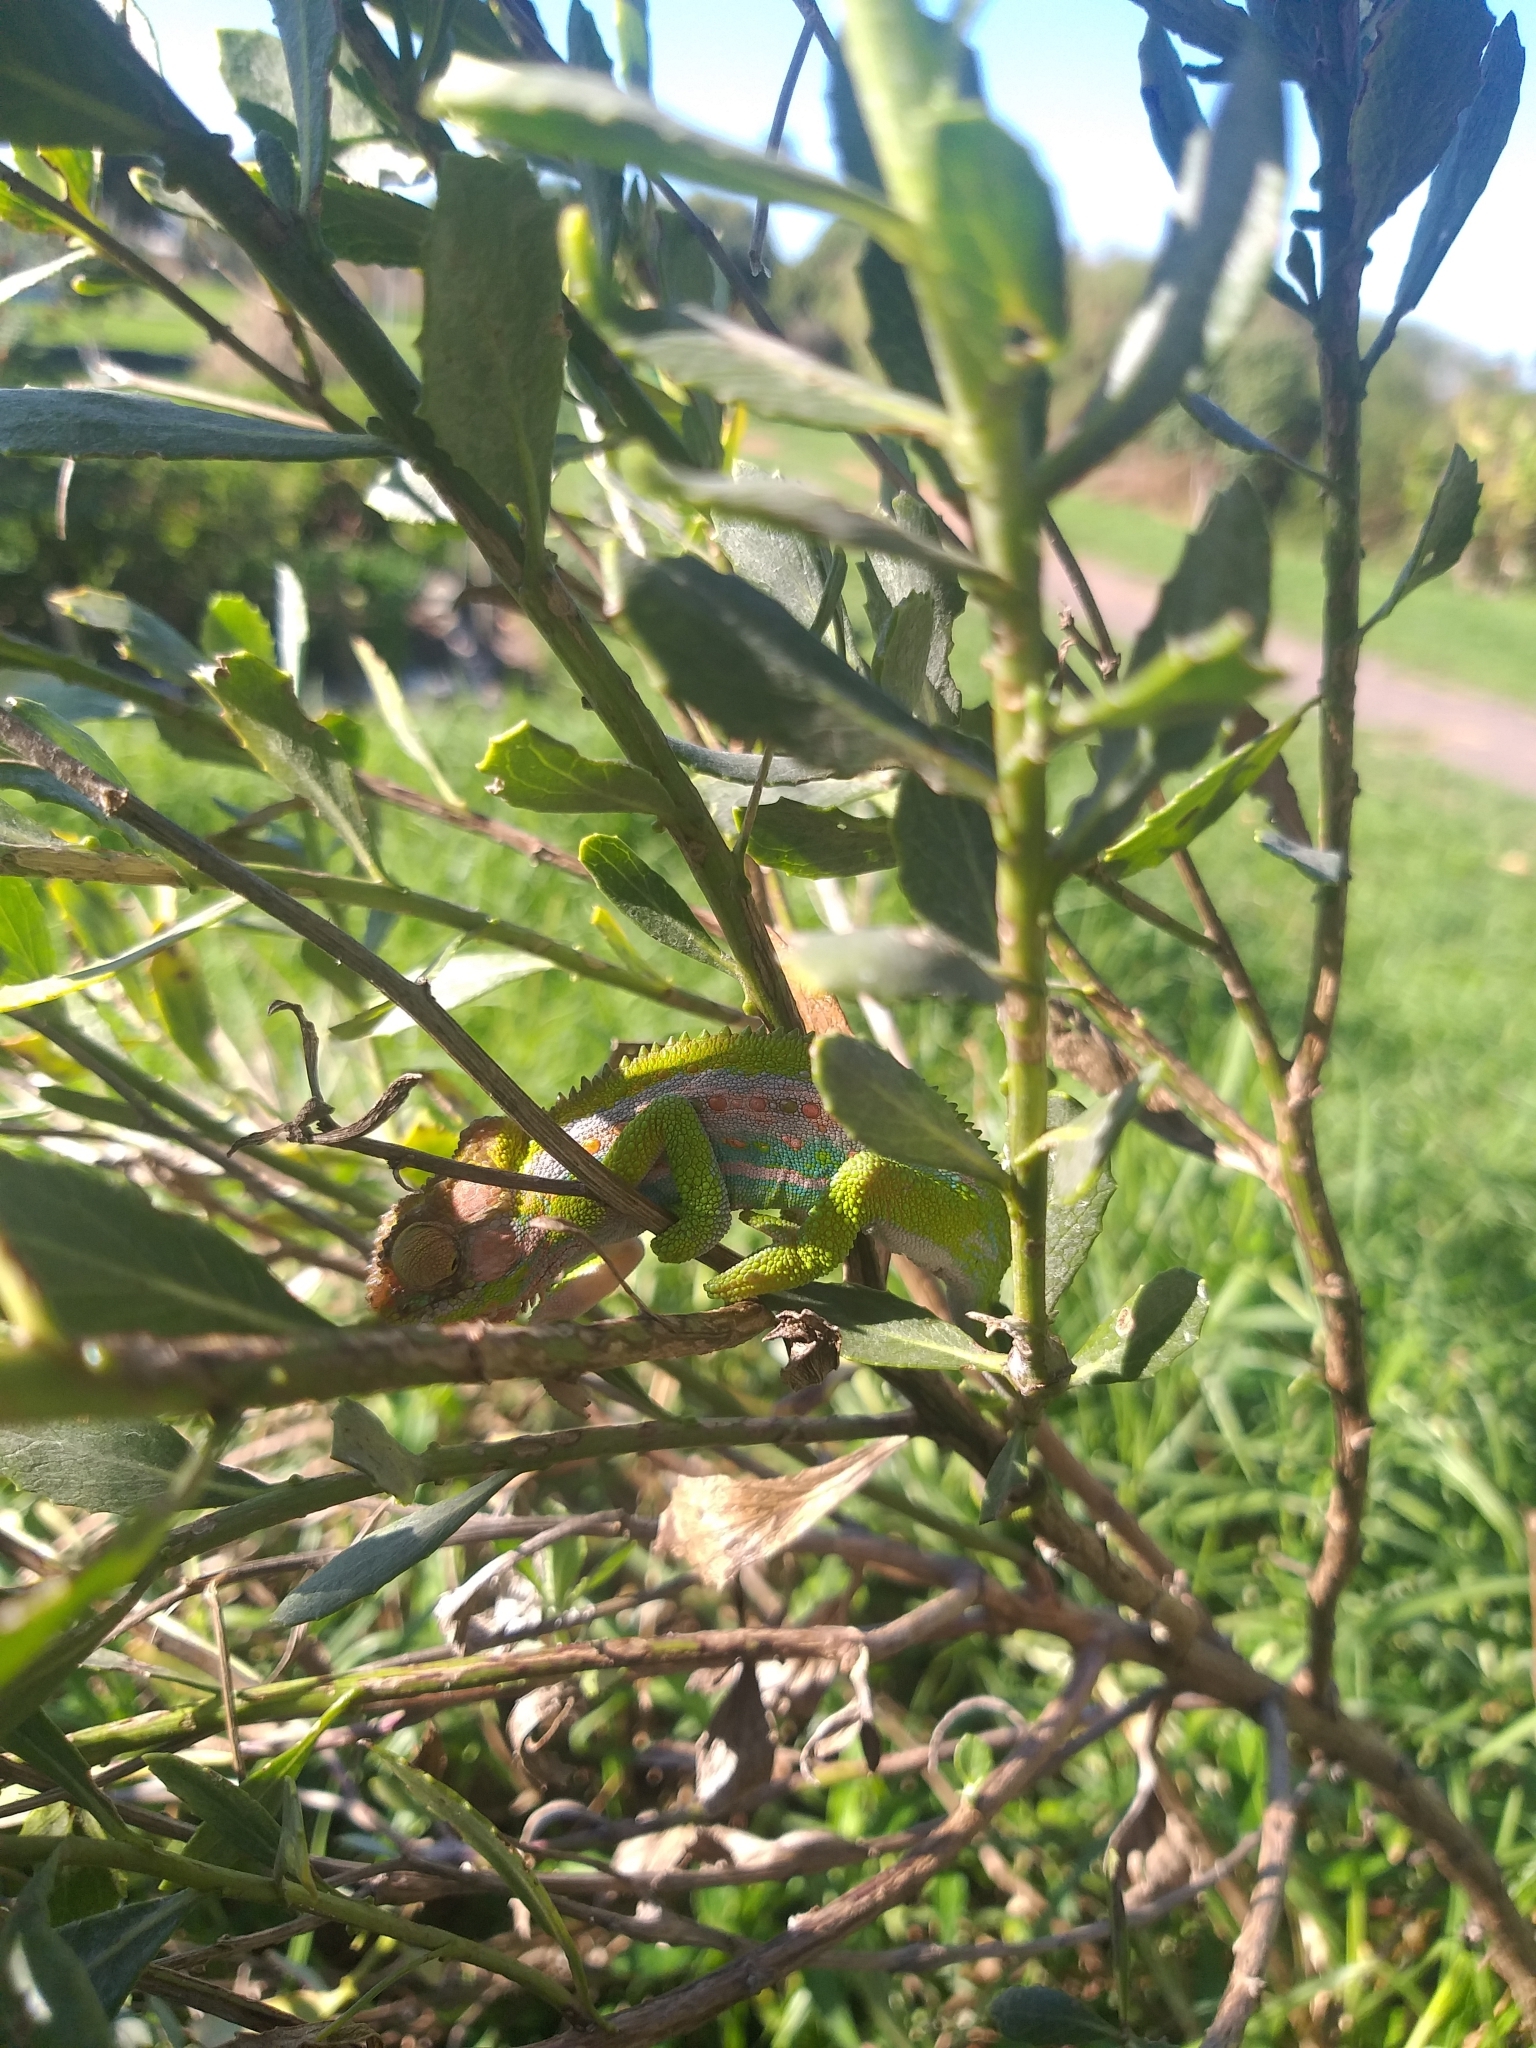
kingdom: Animalia
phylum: Chordata
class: Squamata
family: Chamaeleonidae
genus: Bradypodion
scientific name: Bradypodion pumilum
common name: Cape dwarf chameleon
